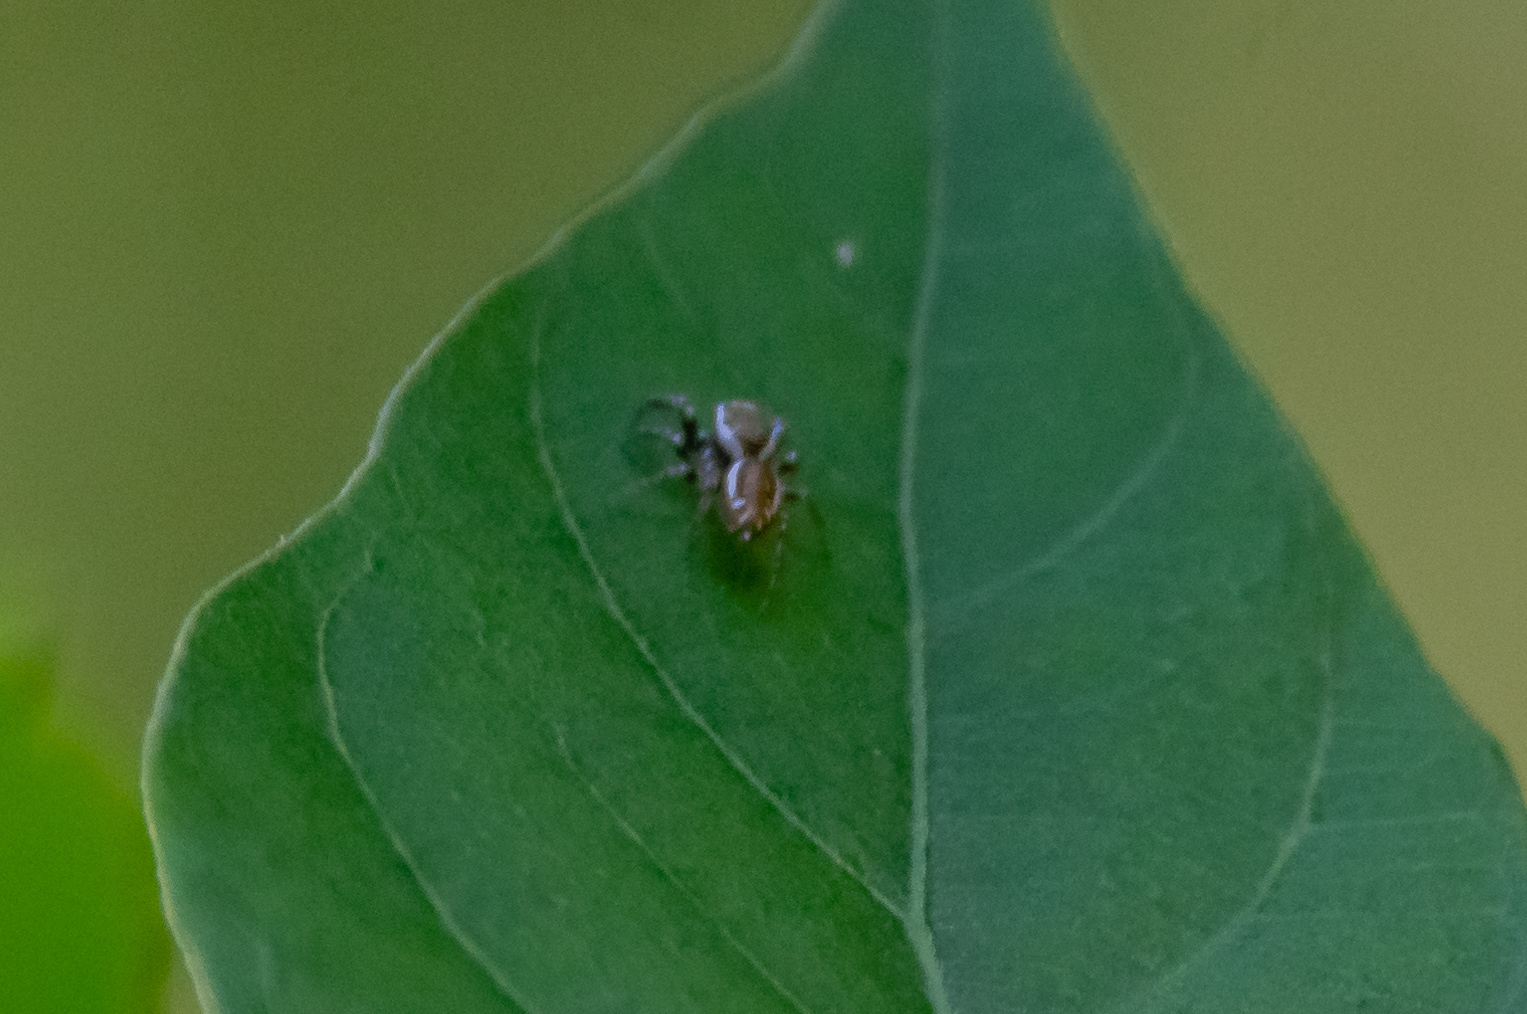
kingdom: Animalia
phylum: Arthropoda
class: Arachnida
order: Araneae
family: Salticidae
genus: Pelegrina
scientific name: Pelegrina proterva
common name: Common white-cheeked jumping spider
